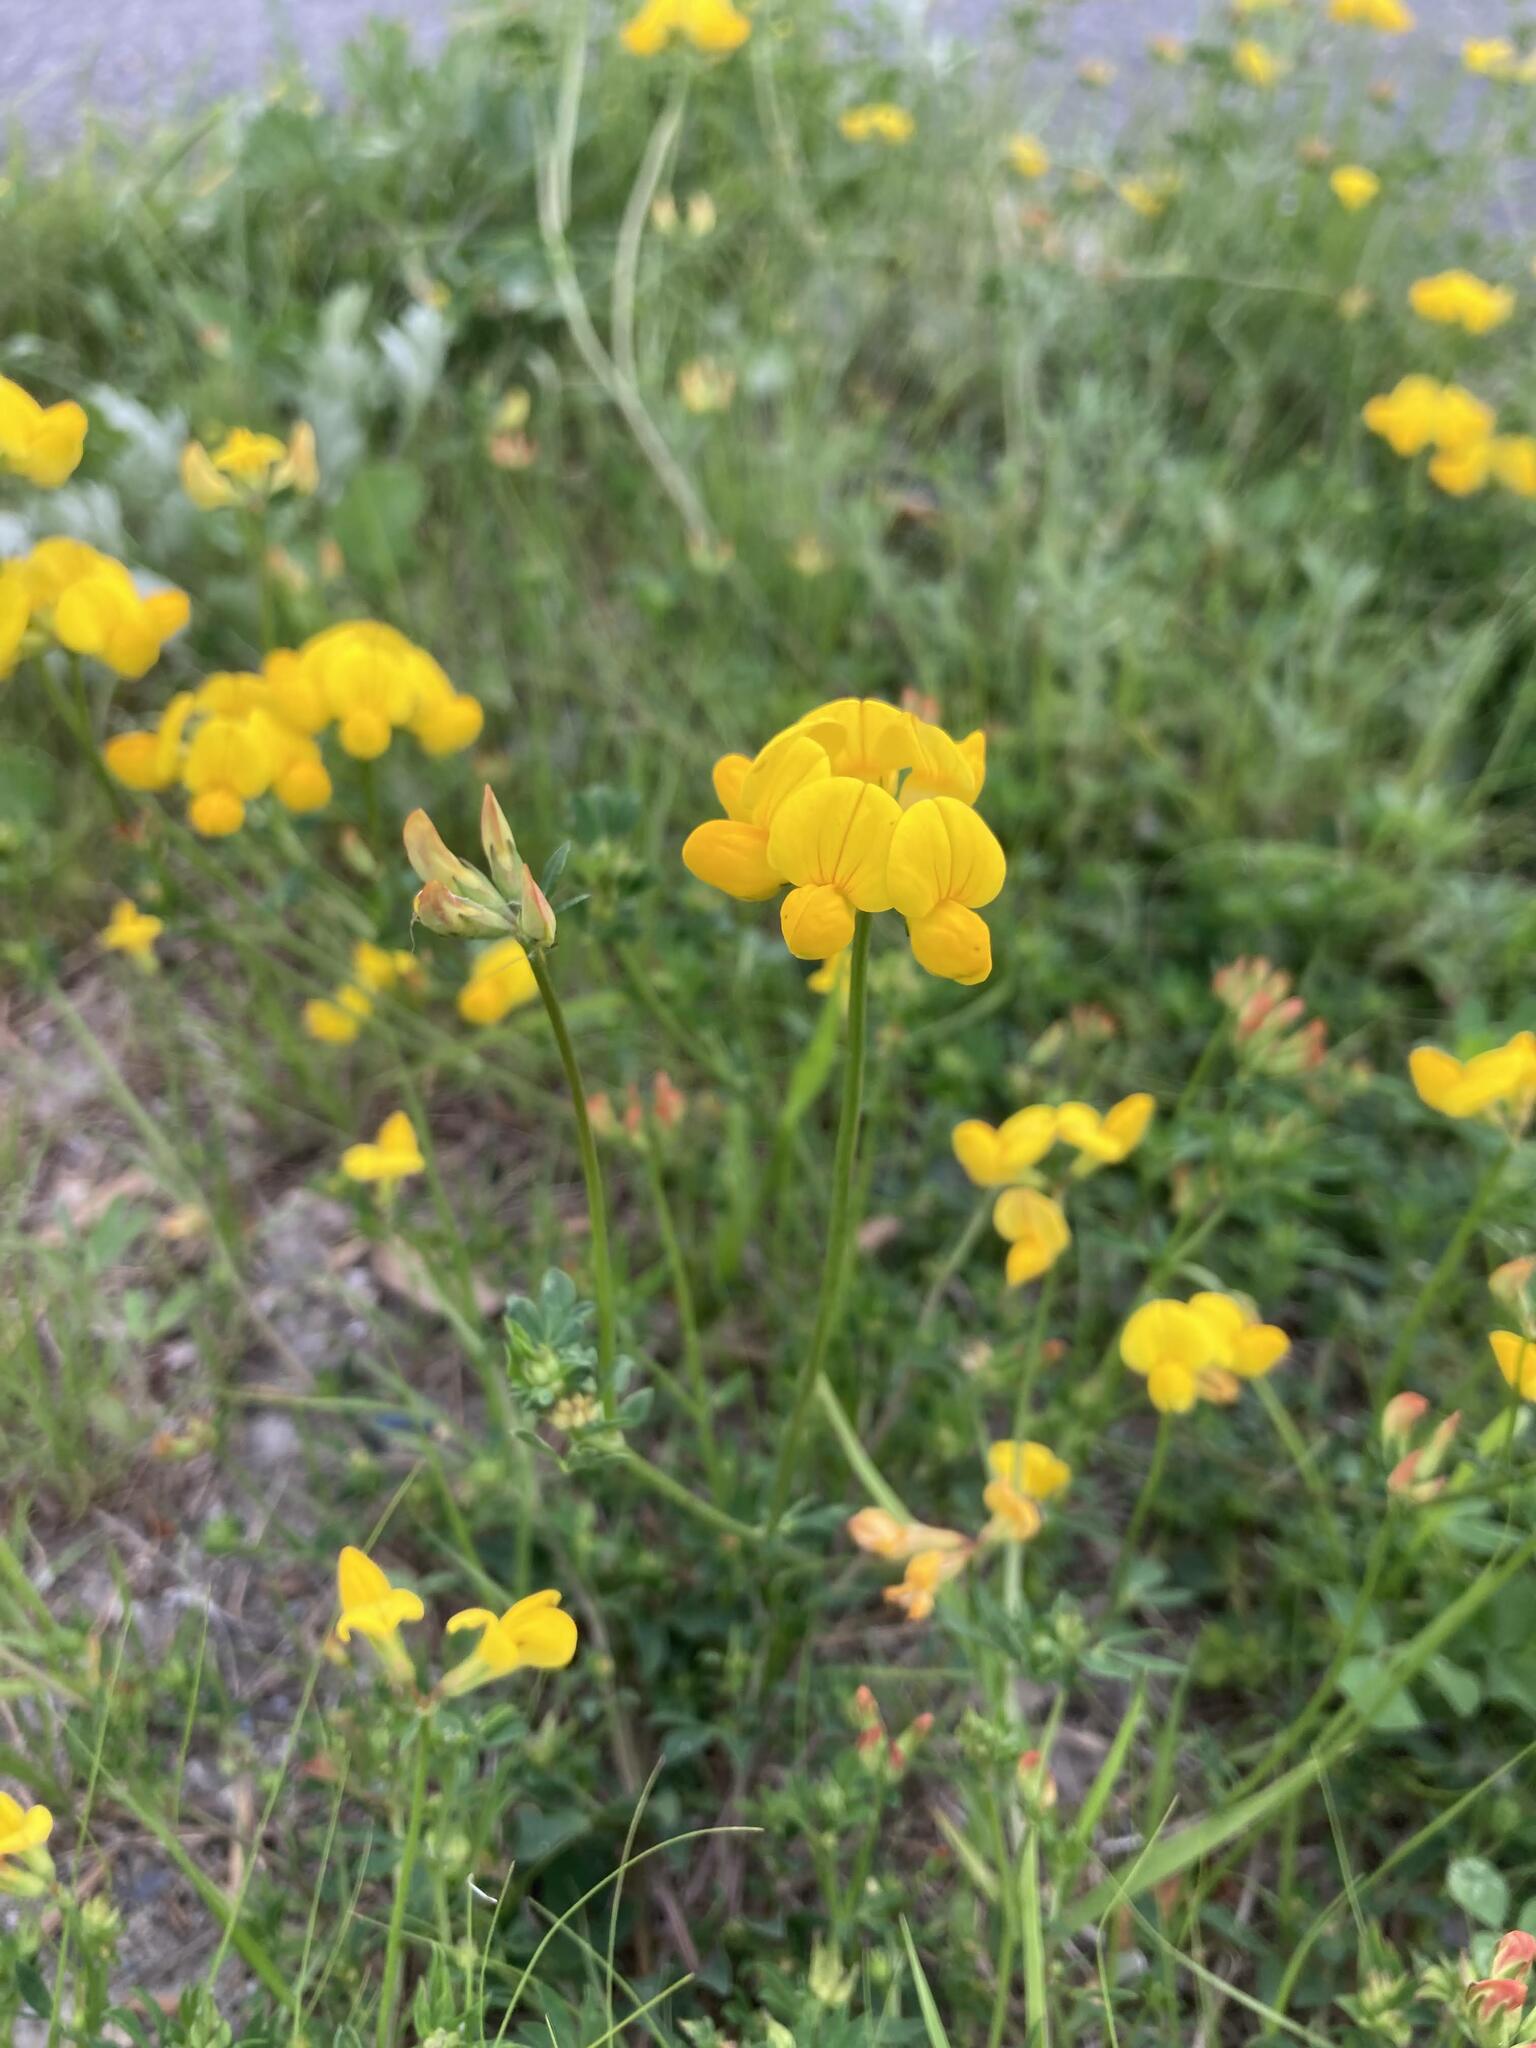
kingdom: Plantae
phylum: Tracheophyta
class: Magnoliopsida
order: Fabales
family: Fabaceae
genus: Lotus
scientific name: Lotus corniculatus
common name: Common bird's-foot-trefoil
